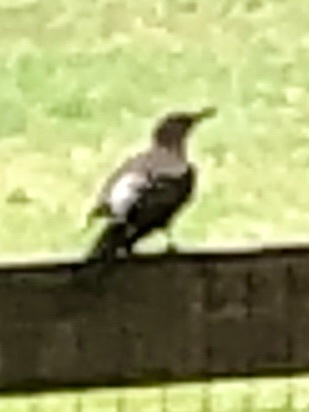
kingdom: Animalia
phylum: Chordata
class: Aves
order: Piciformes
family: Picidae
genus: Colaptes
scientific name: Colaptes auratus
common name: Northern flicker
